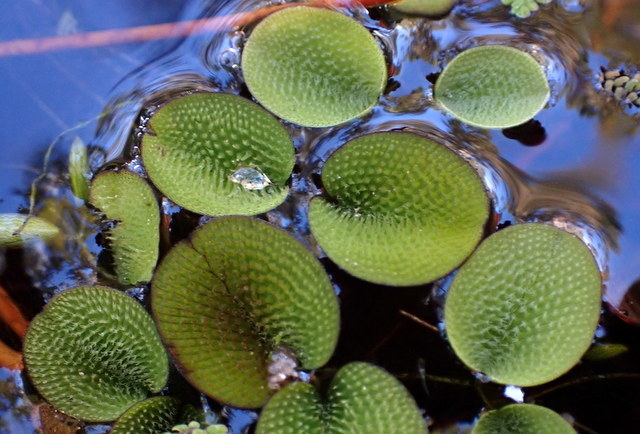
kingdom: Plantae
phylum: Tracheophyta
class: Polypodiopsida
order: Salviniales
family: Salviniaceae
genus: Salvinia
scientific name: Salvinia minima
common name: Water spangles
